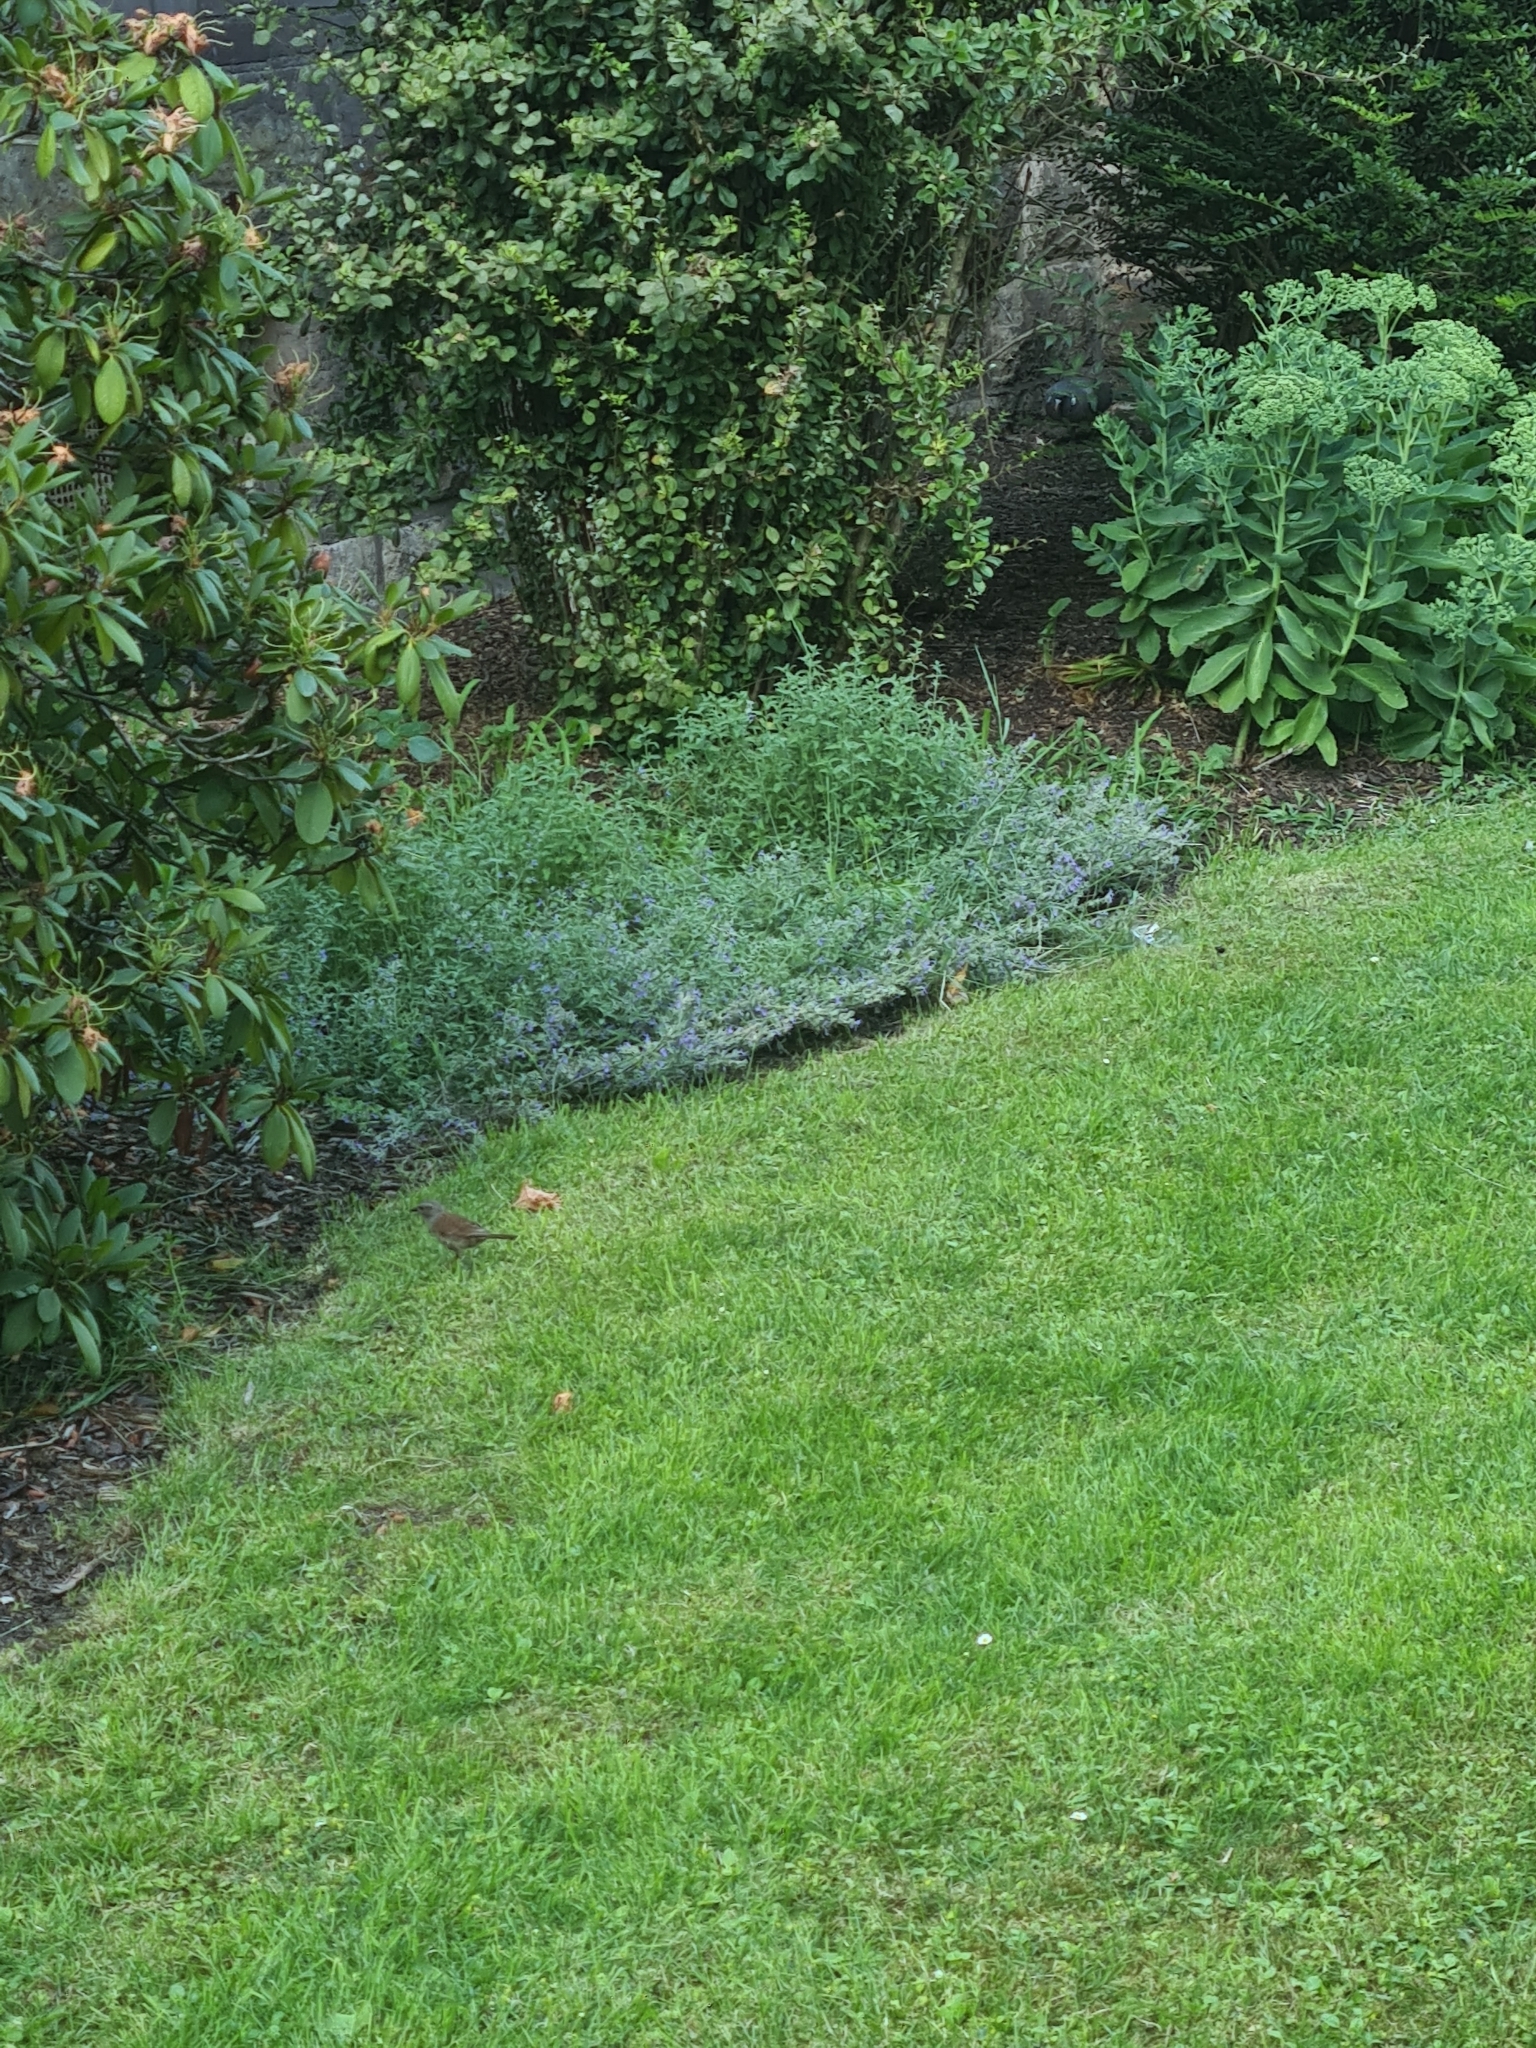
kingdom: Animalia
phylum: Chordata
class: Aves
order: Passeriformes
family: Prunellidae
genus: Prunella
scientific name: Prunella modularis
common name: Dunnock
